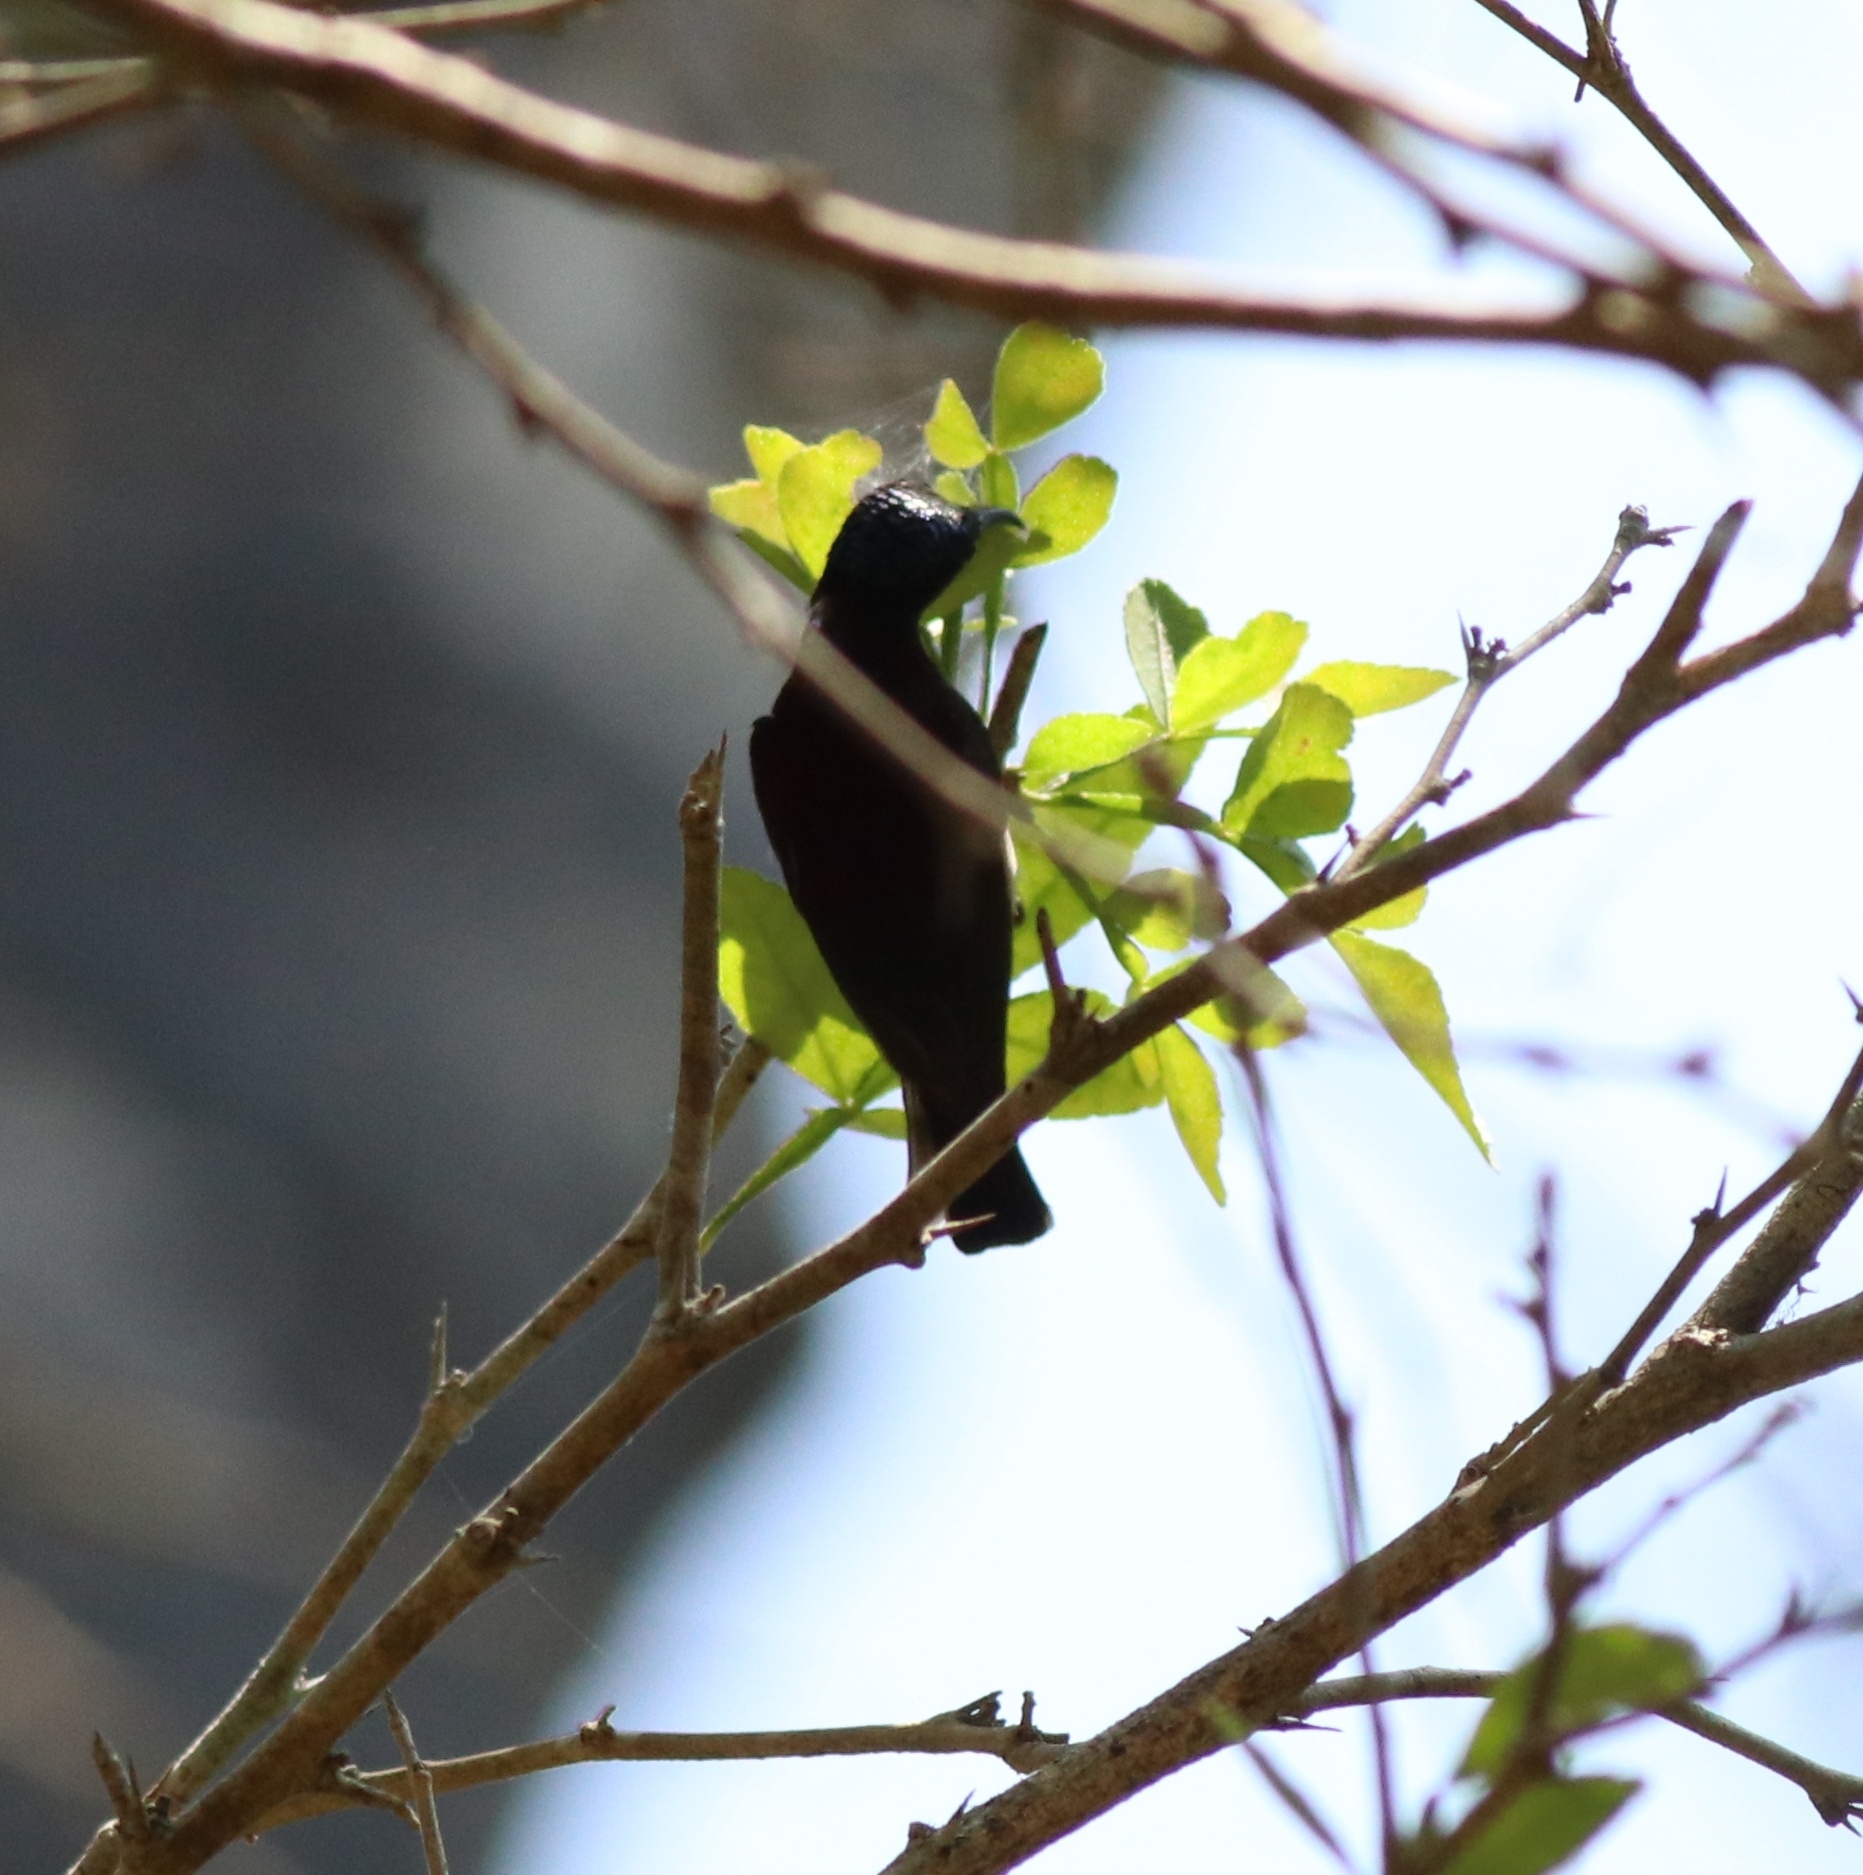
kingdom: Animalia
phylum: Chordata
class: Aves
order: Passeriformes
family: Nectariniidae
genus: Leptocoma
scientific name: Leptocoma minima
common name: Crimson-backed sunbird
